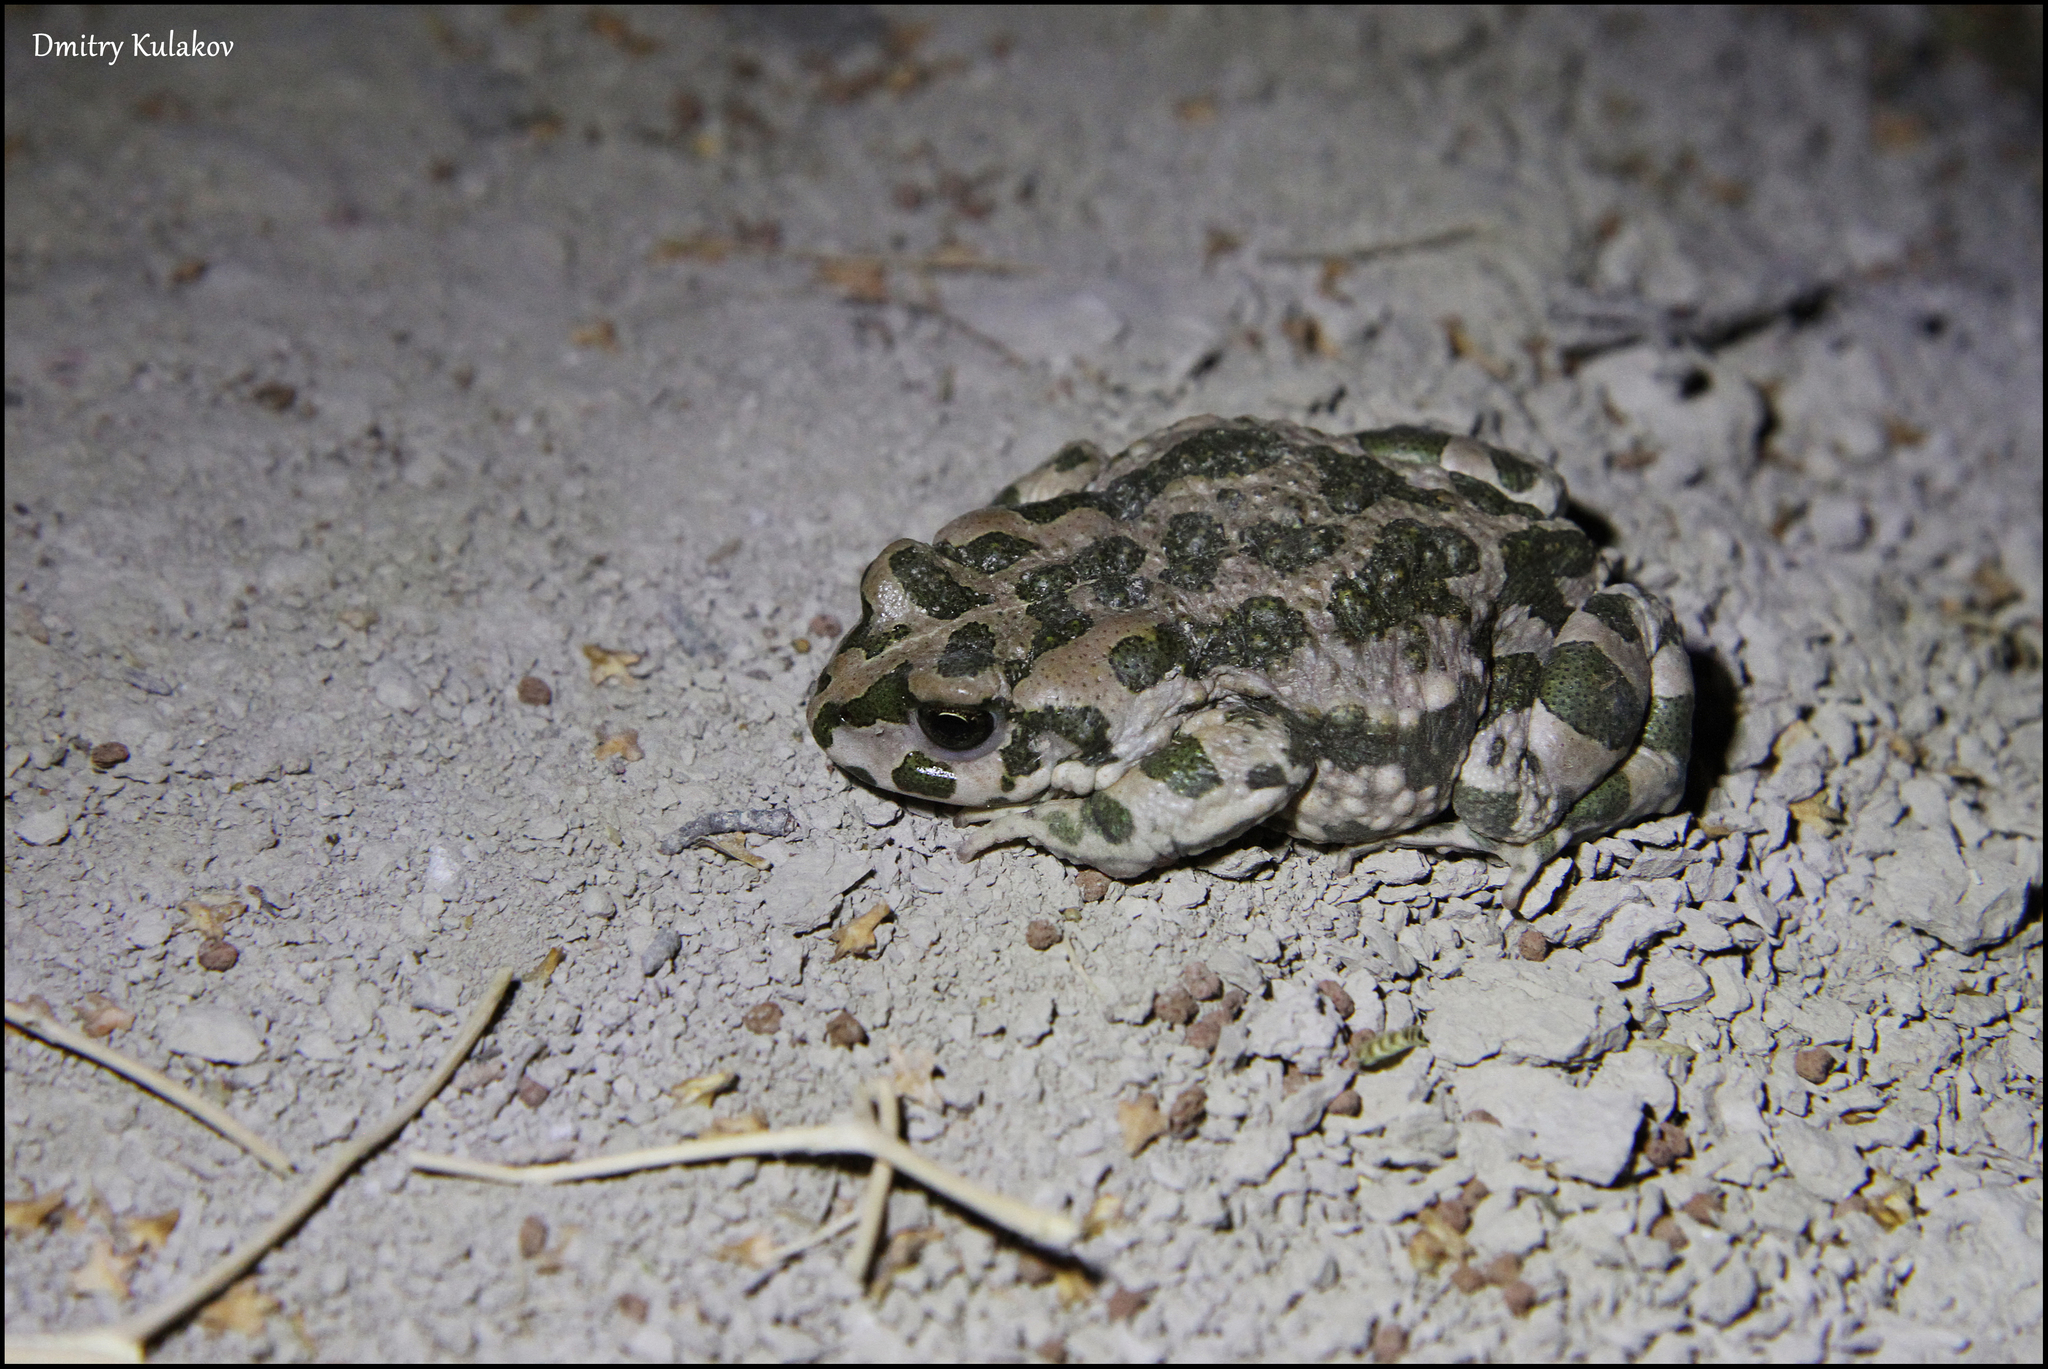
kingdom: Animalia
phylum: Chordata
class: Amphibia
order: Anura
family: Bufonidae
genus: Bufotes
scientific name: Bufotes pewzowi
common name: Xinjiang toad
